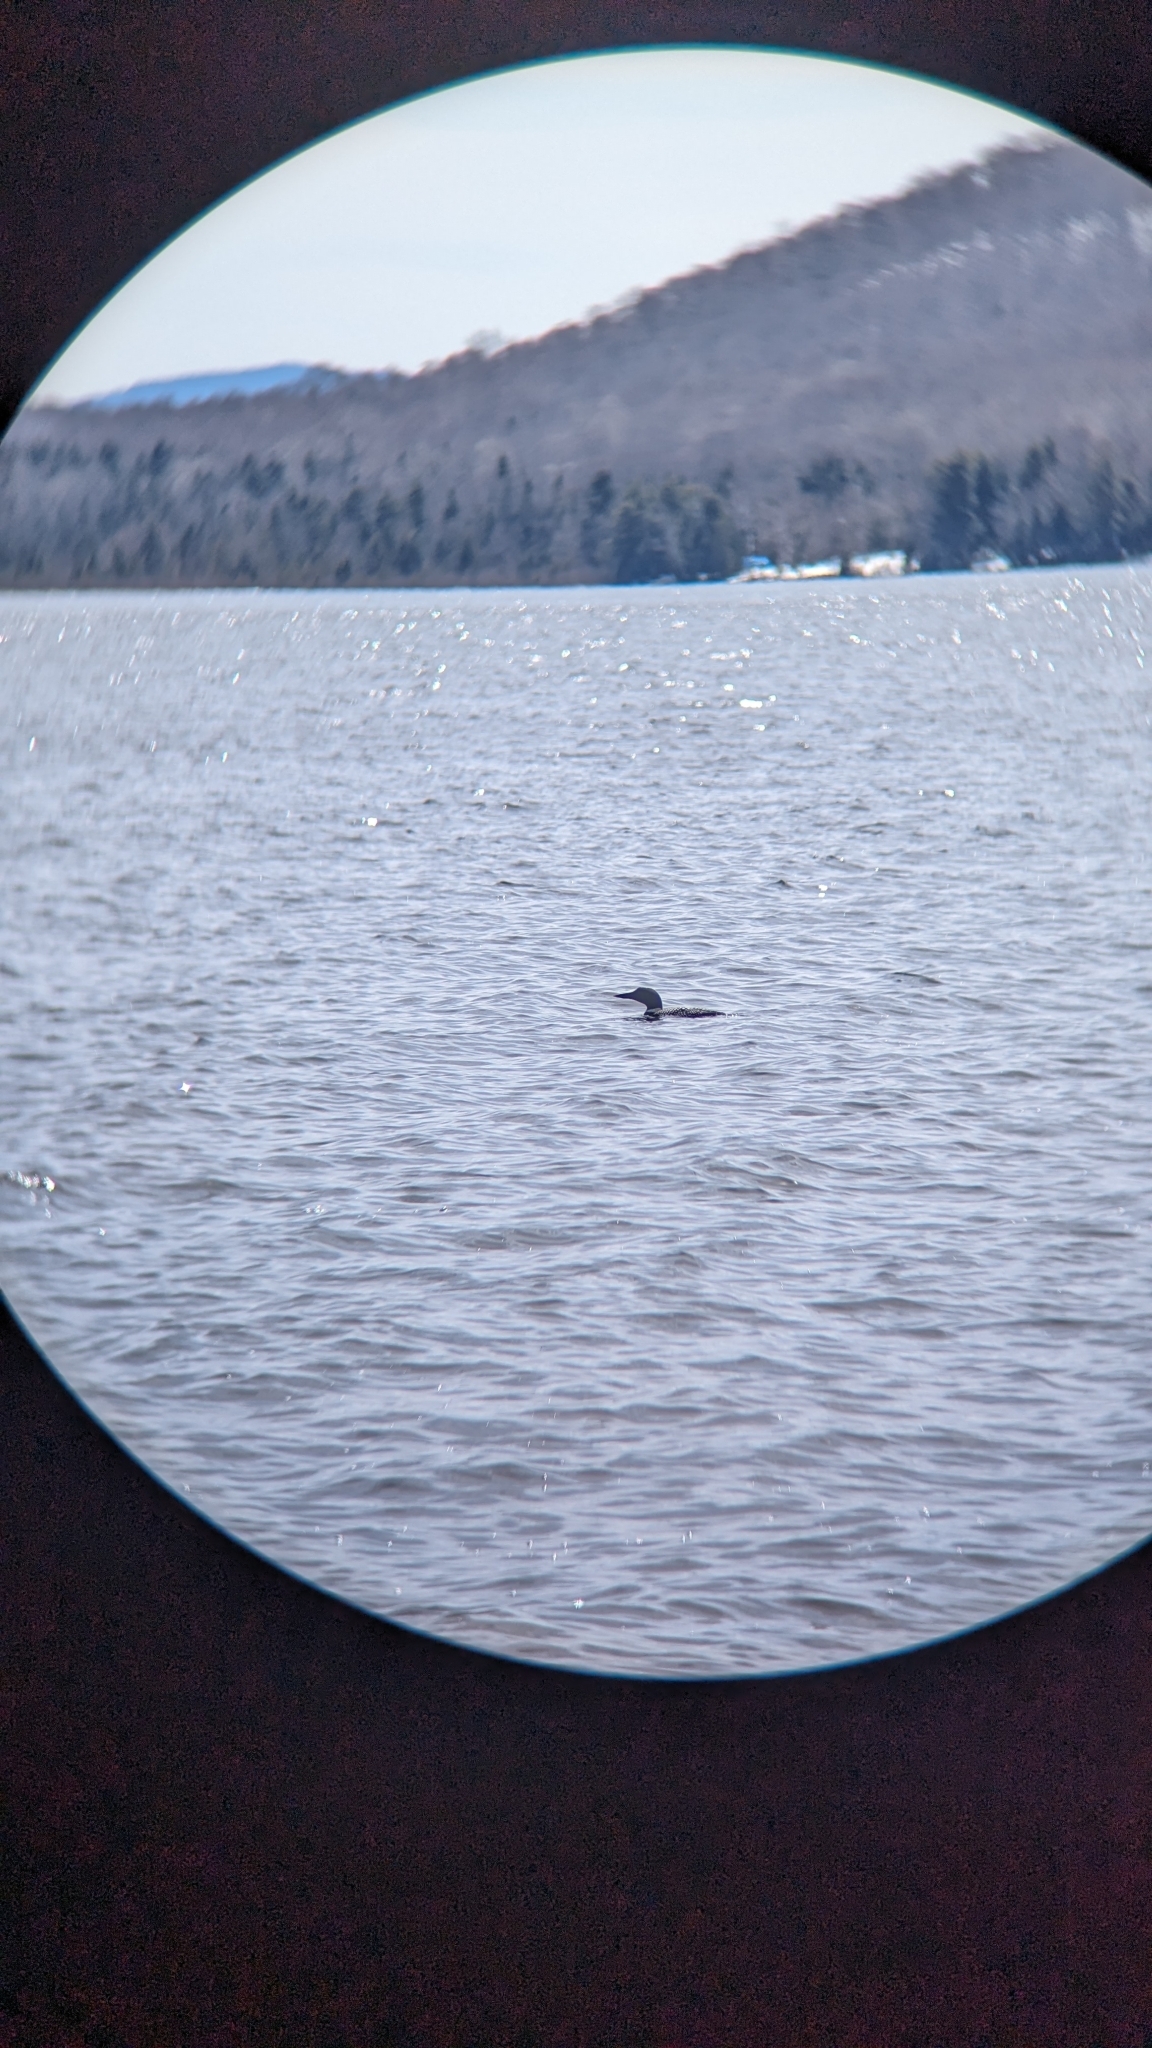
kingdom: Animalia
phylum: Chordata
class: Aves
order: Gaviiformes
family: Gaviidae
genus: Gavia
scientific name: Gavia immer
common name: Common loon
